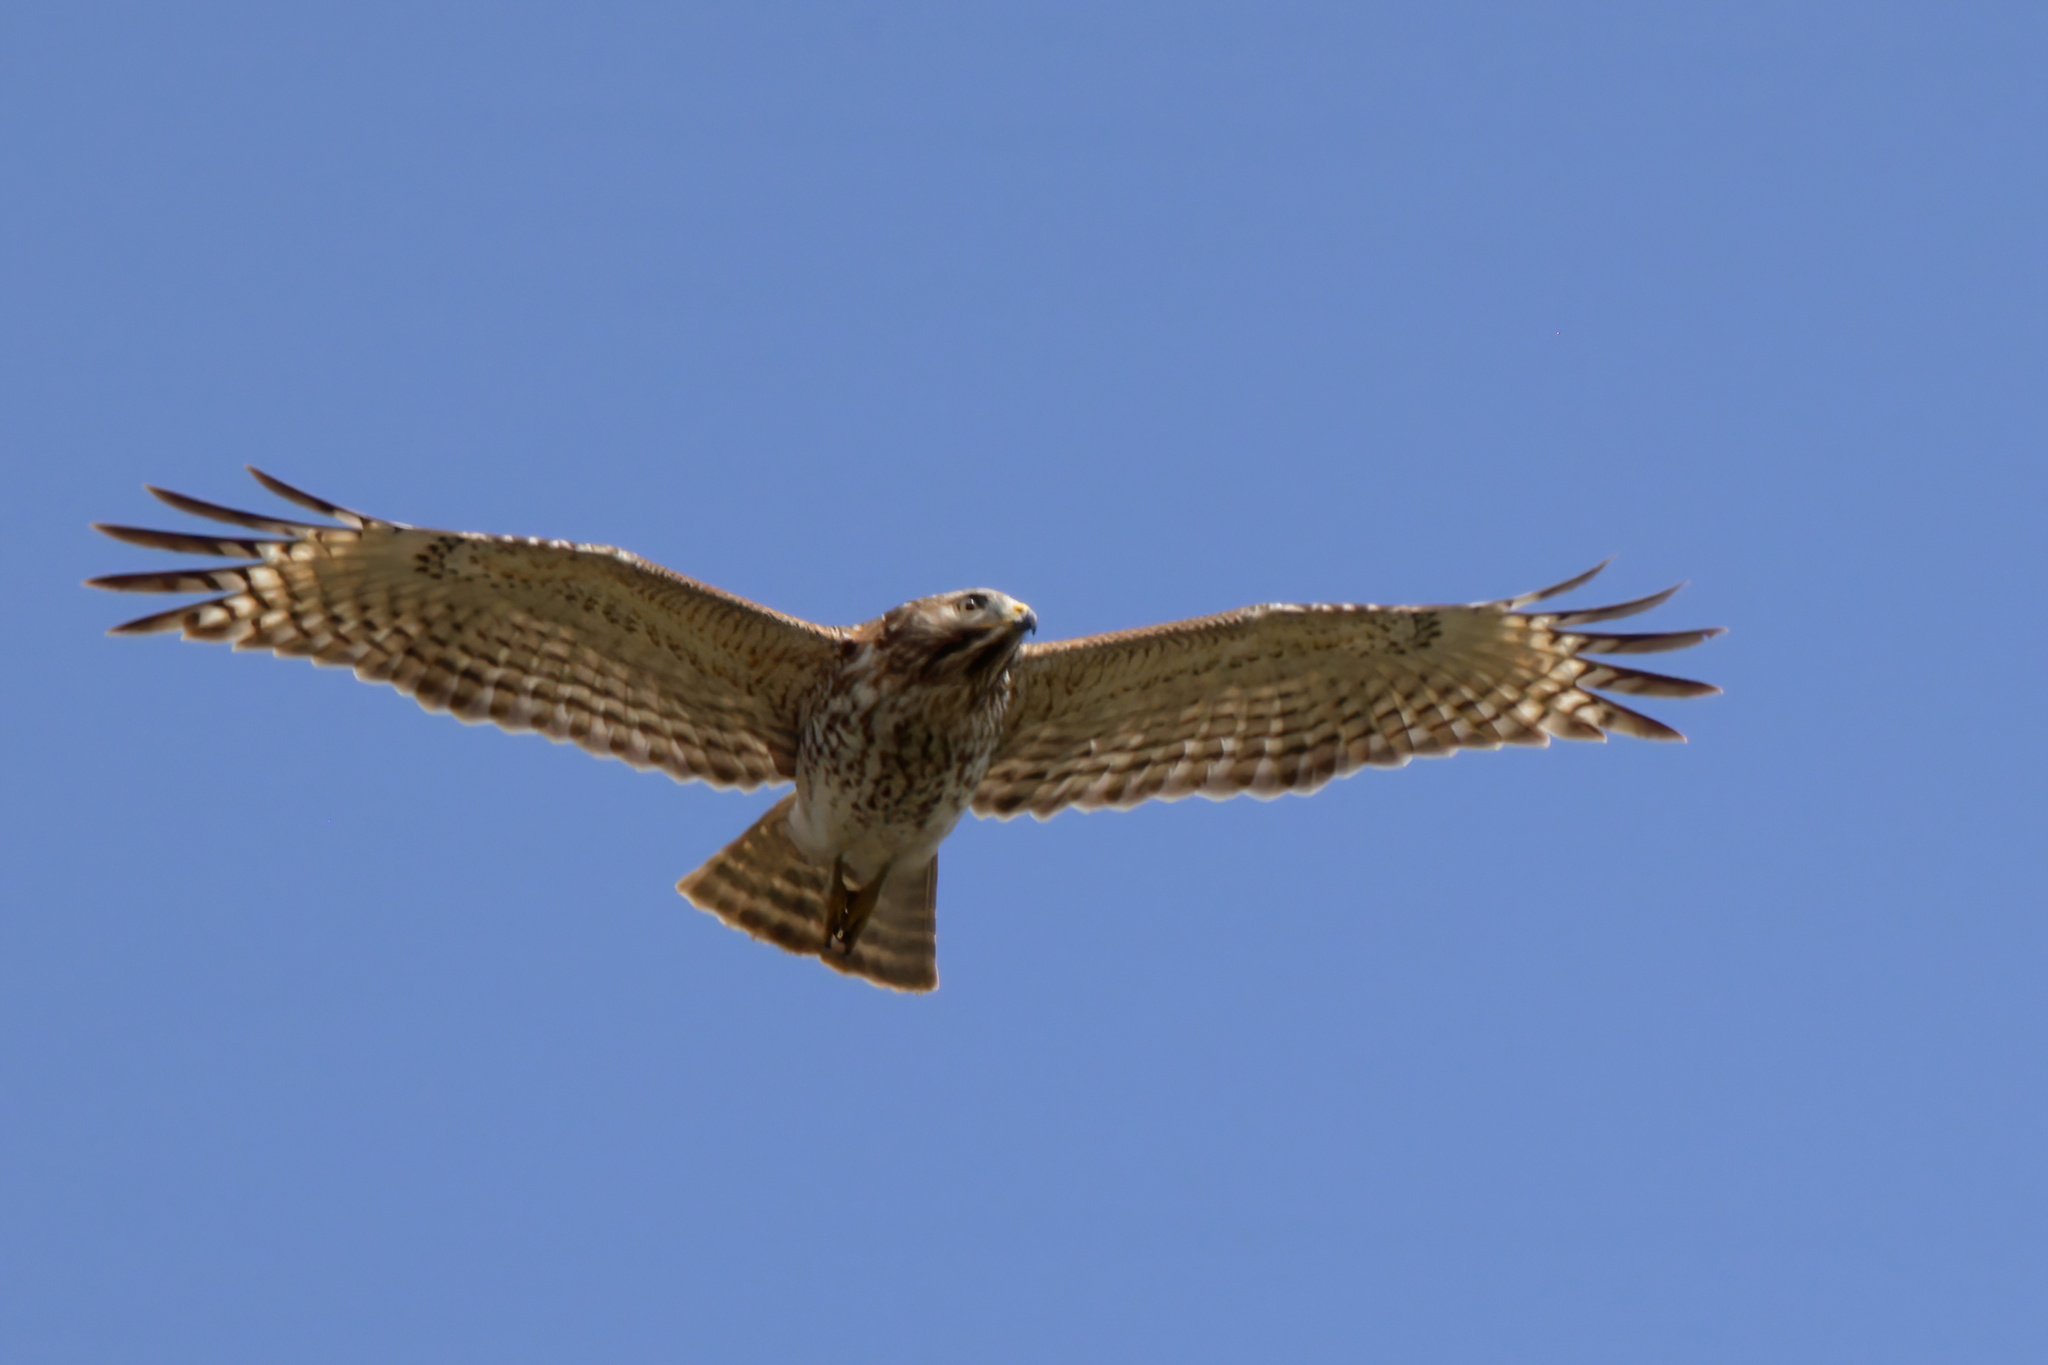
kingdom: Animalia
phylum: Chordata
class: Aves
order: Accipitriformes
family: Accipitridae
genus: Buteo
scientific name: Buteo lineatus
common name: Red-shouldered hawk
